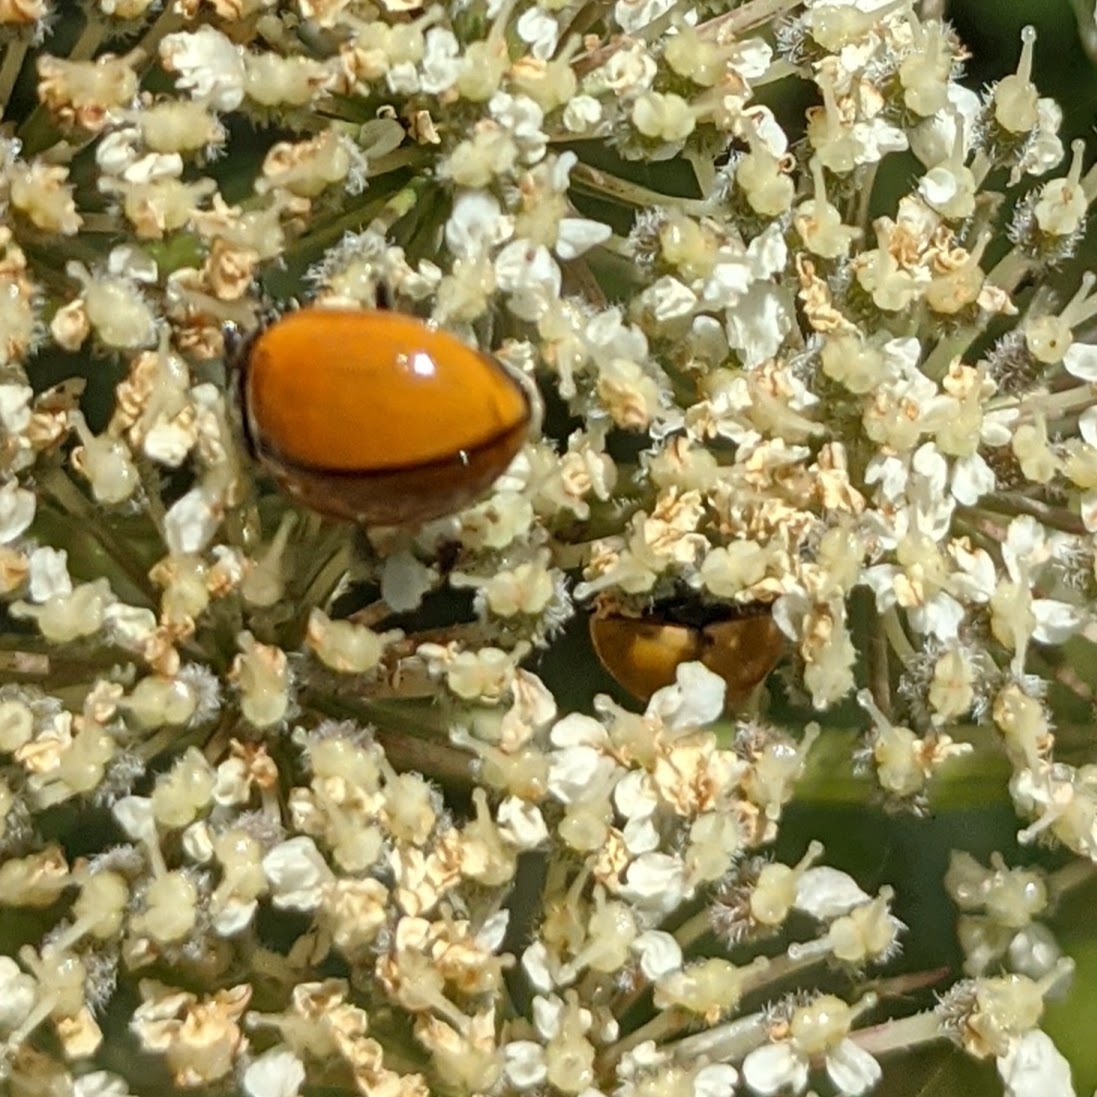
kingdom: Animalia
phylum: Arthropoda
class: Insecta
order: Coleoptera
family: Coccinellidae
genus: Coccinella
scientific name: Coccinella californica
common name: Lady beetle
